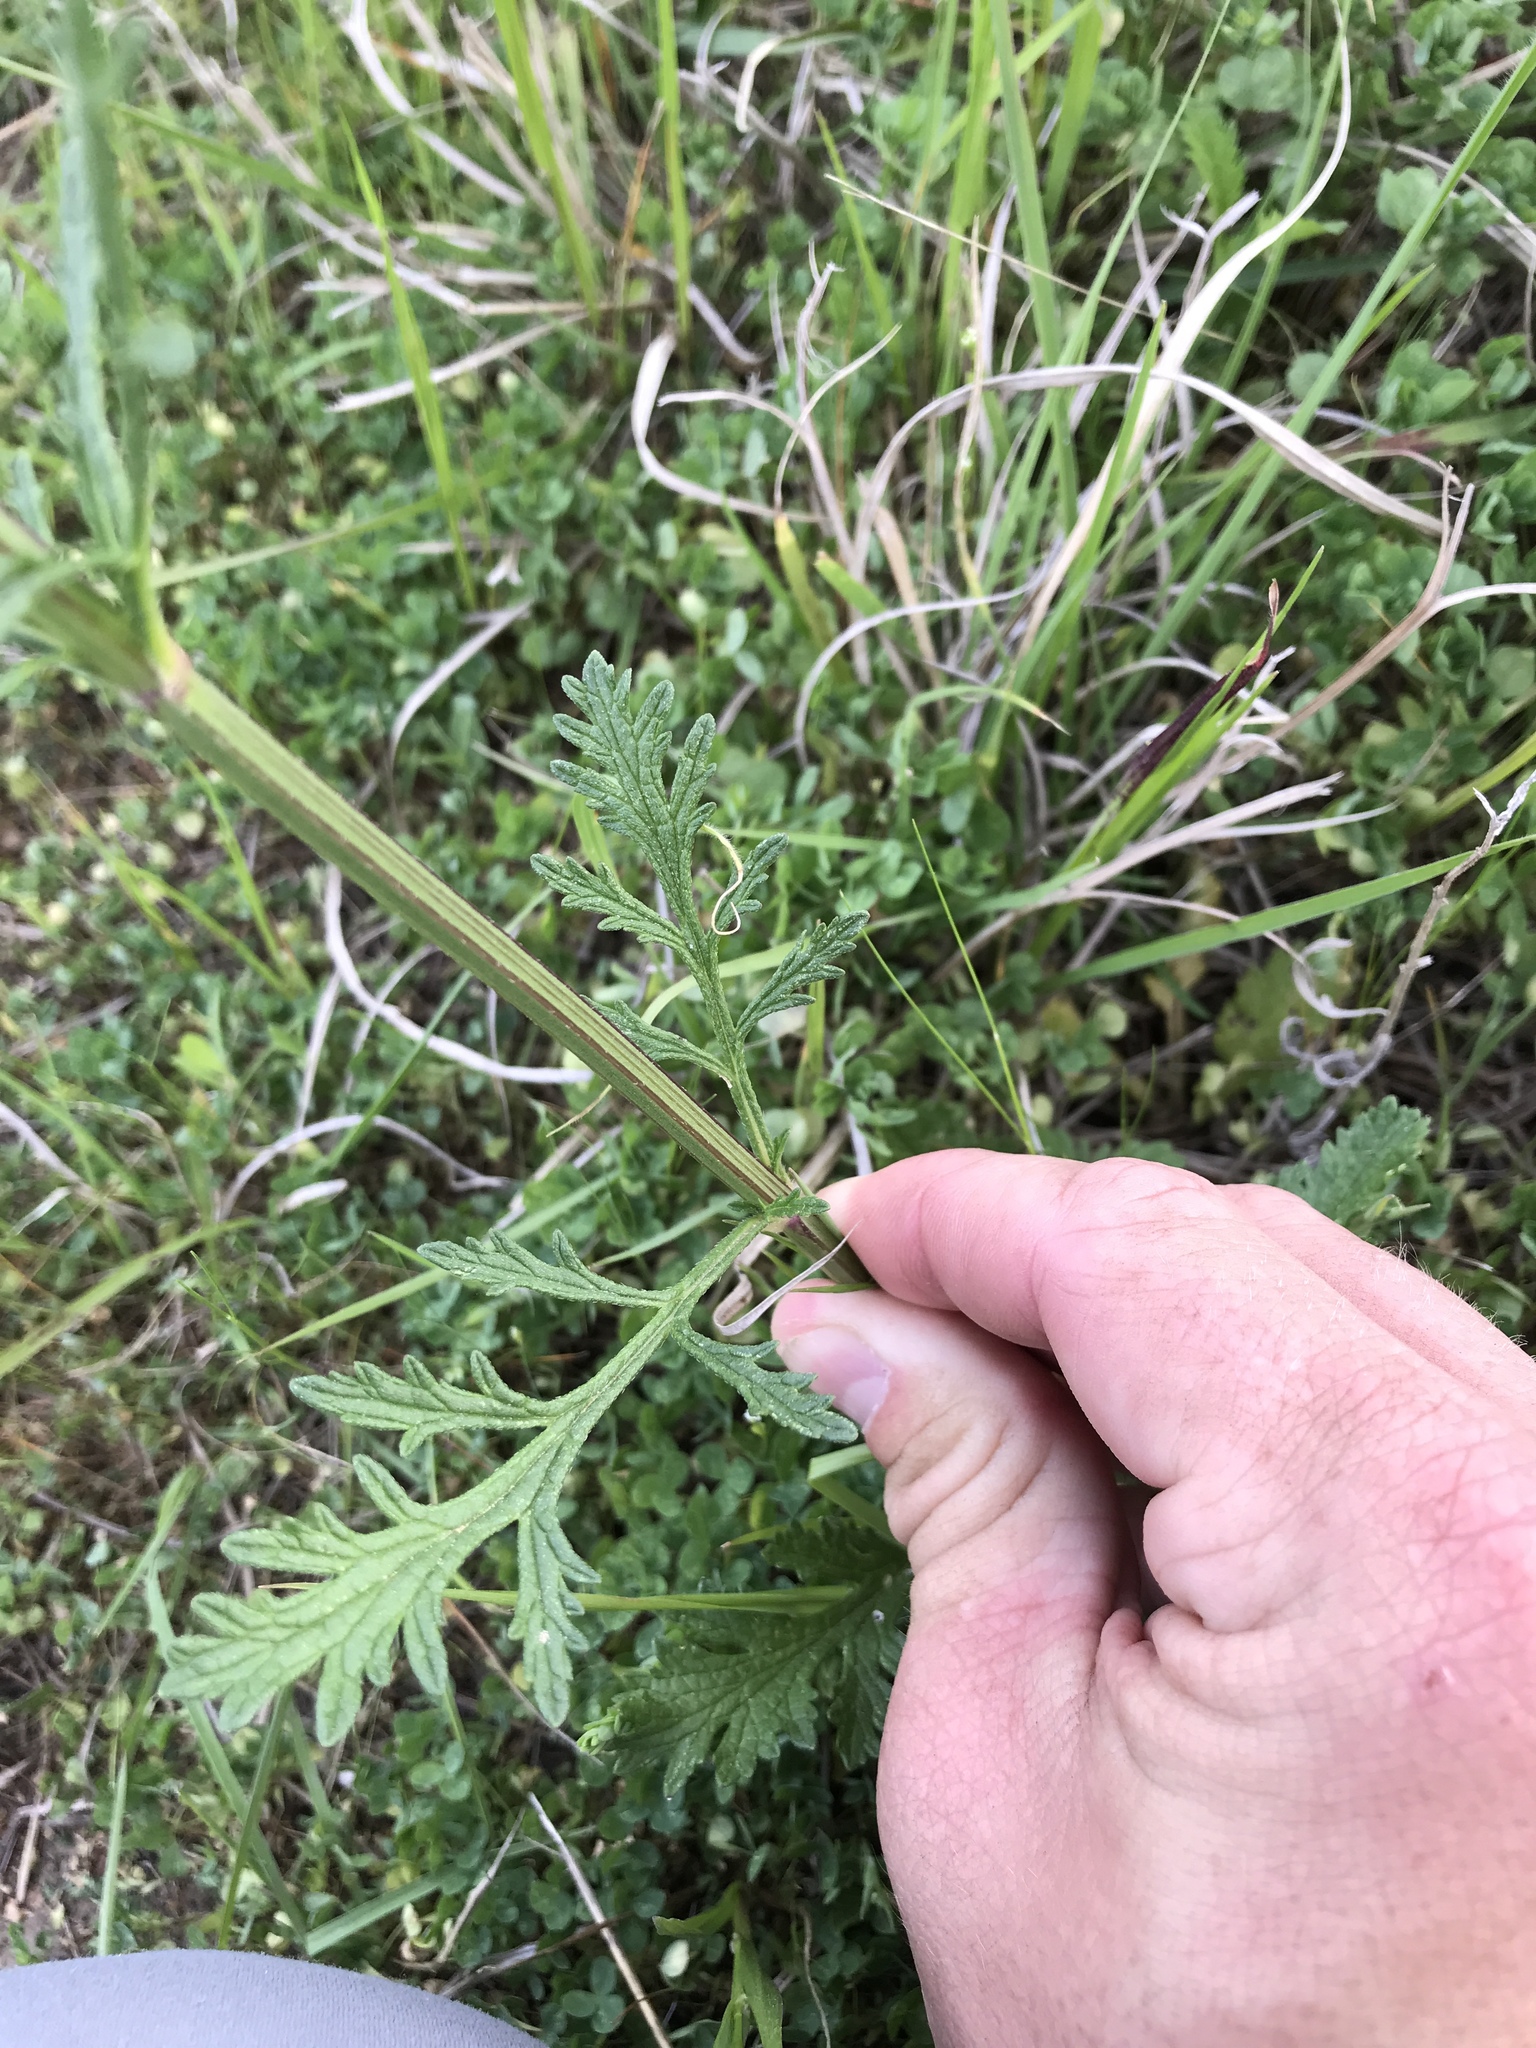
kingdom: Plantae
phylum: Tracheophyta
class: Magnoliopsida
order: Lamiales
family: Verbenaceae
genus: Verbena
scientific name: Verbena halei
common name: Texas vervain
